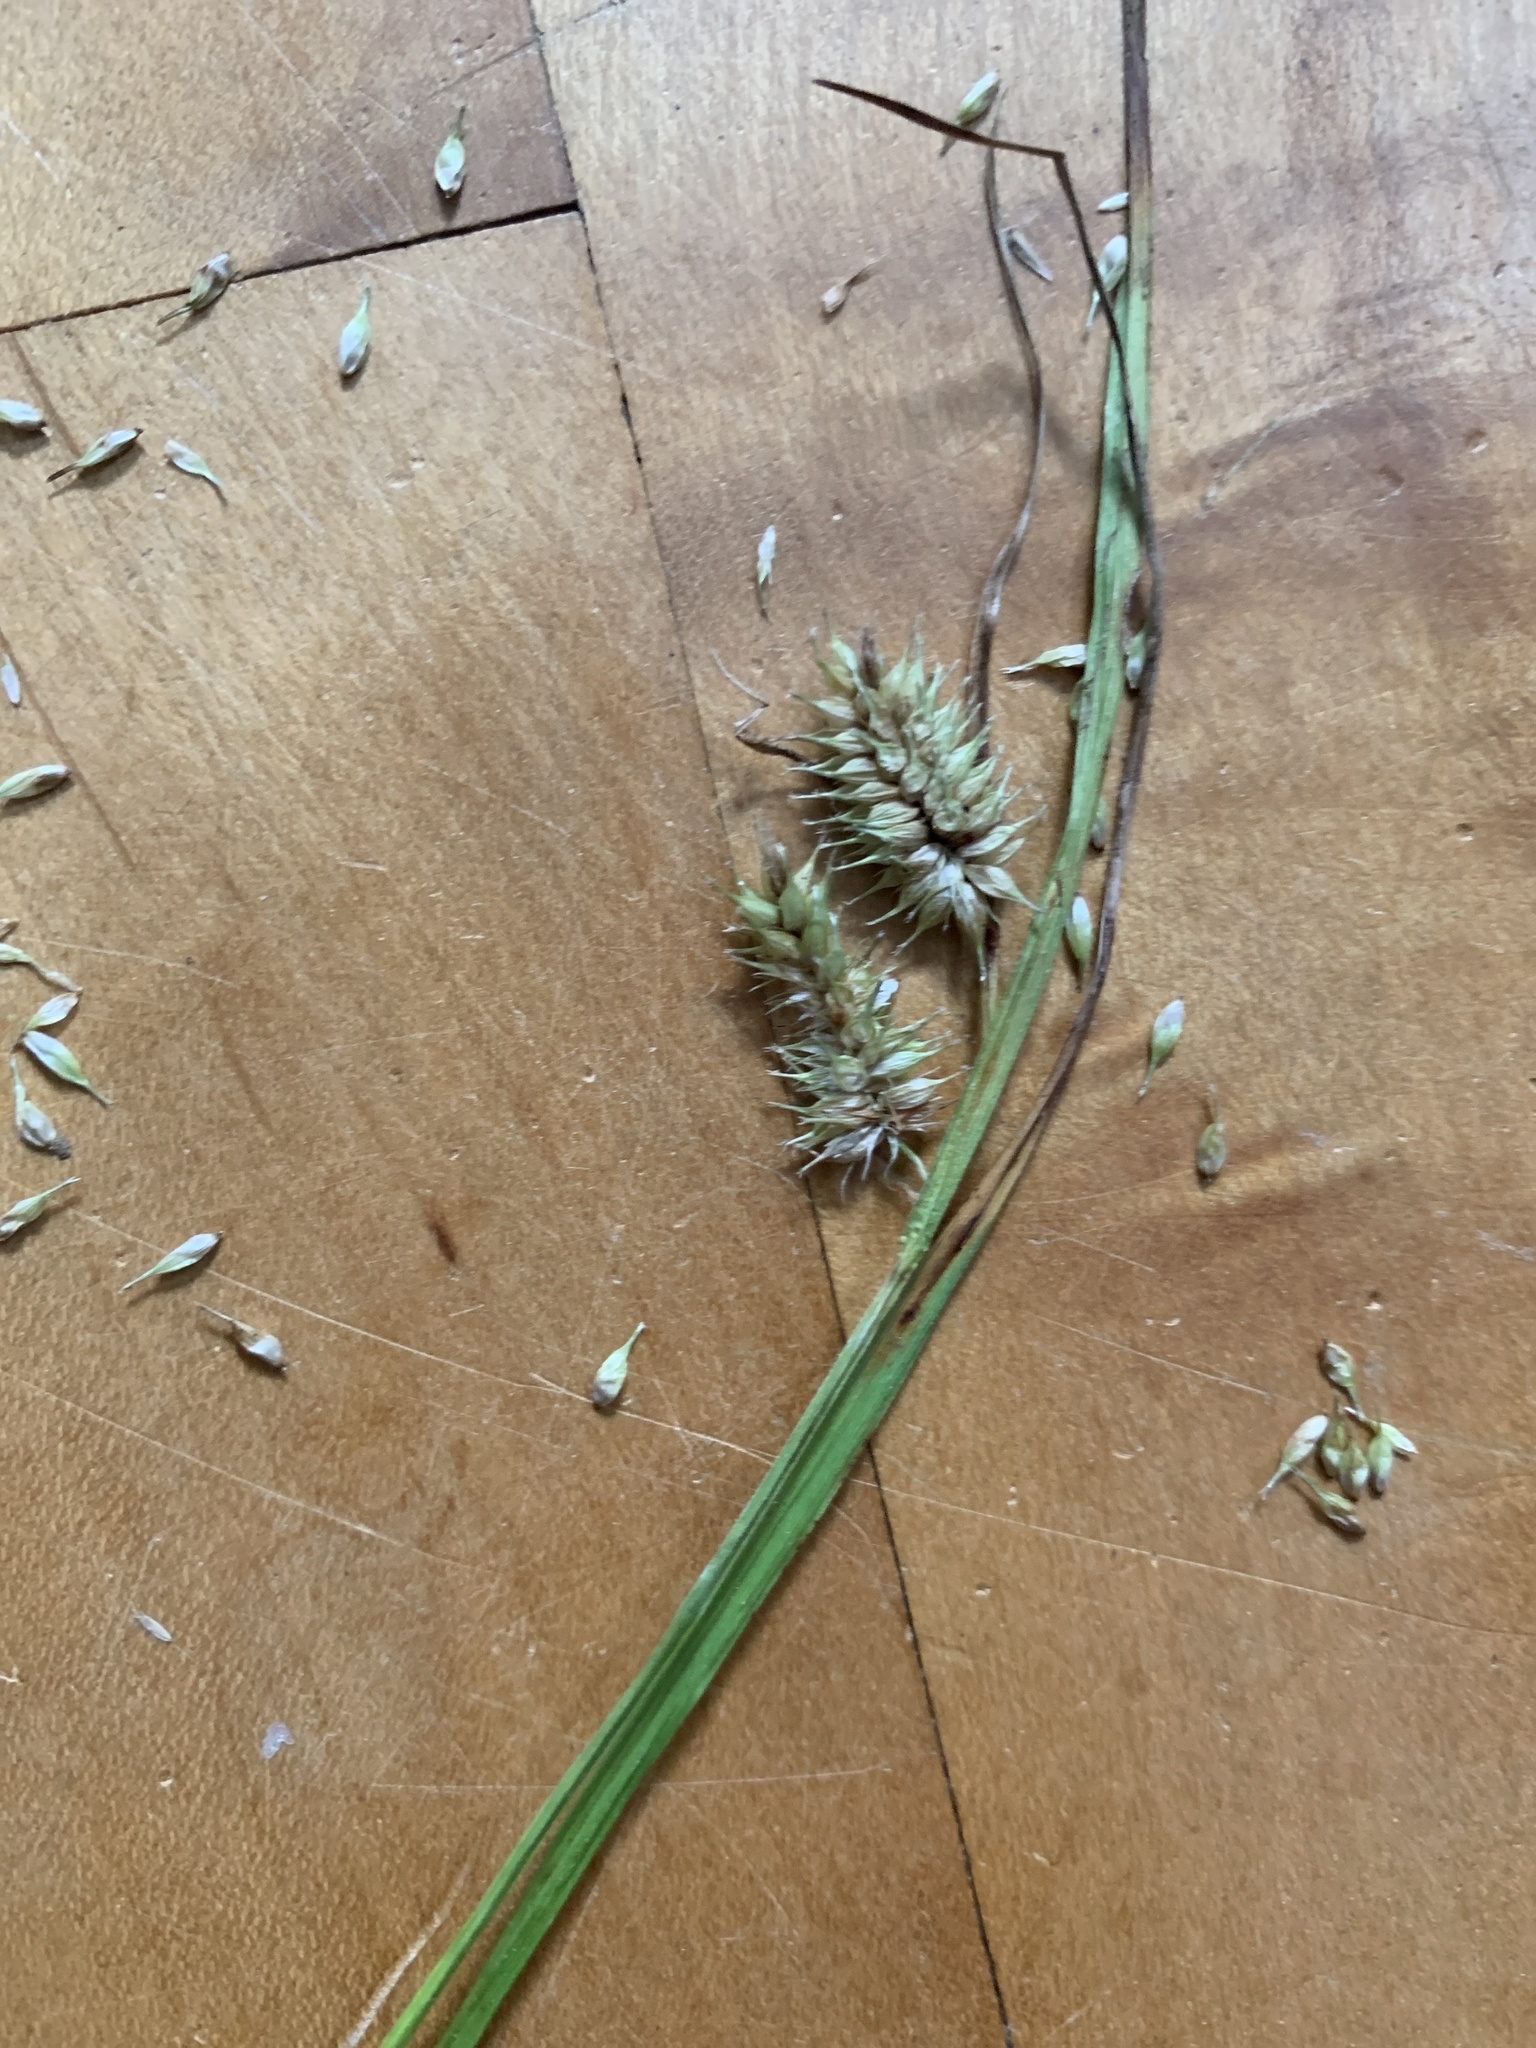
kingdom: Plantae
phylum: Tracheophyta
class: Liliopsida
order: Poales
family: Cyperaceae
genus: Carex
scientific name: Carex hystericina
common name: Bottlebrush sedge
